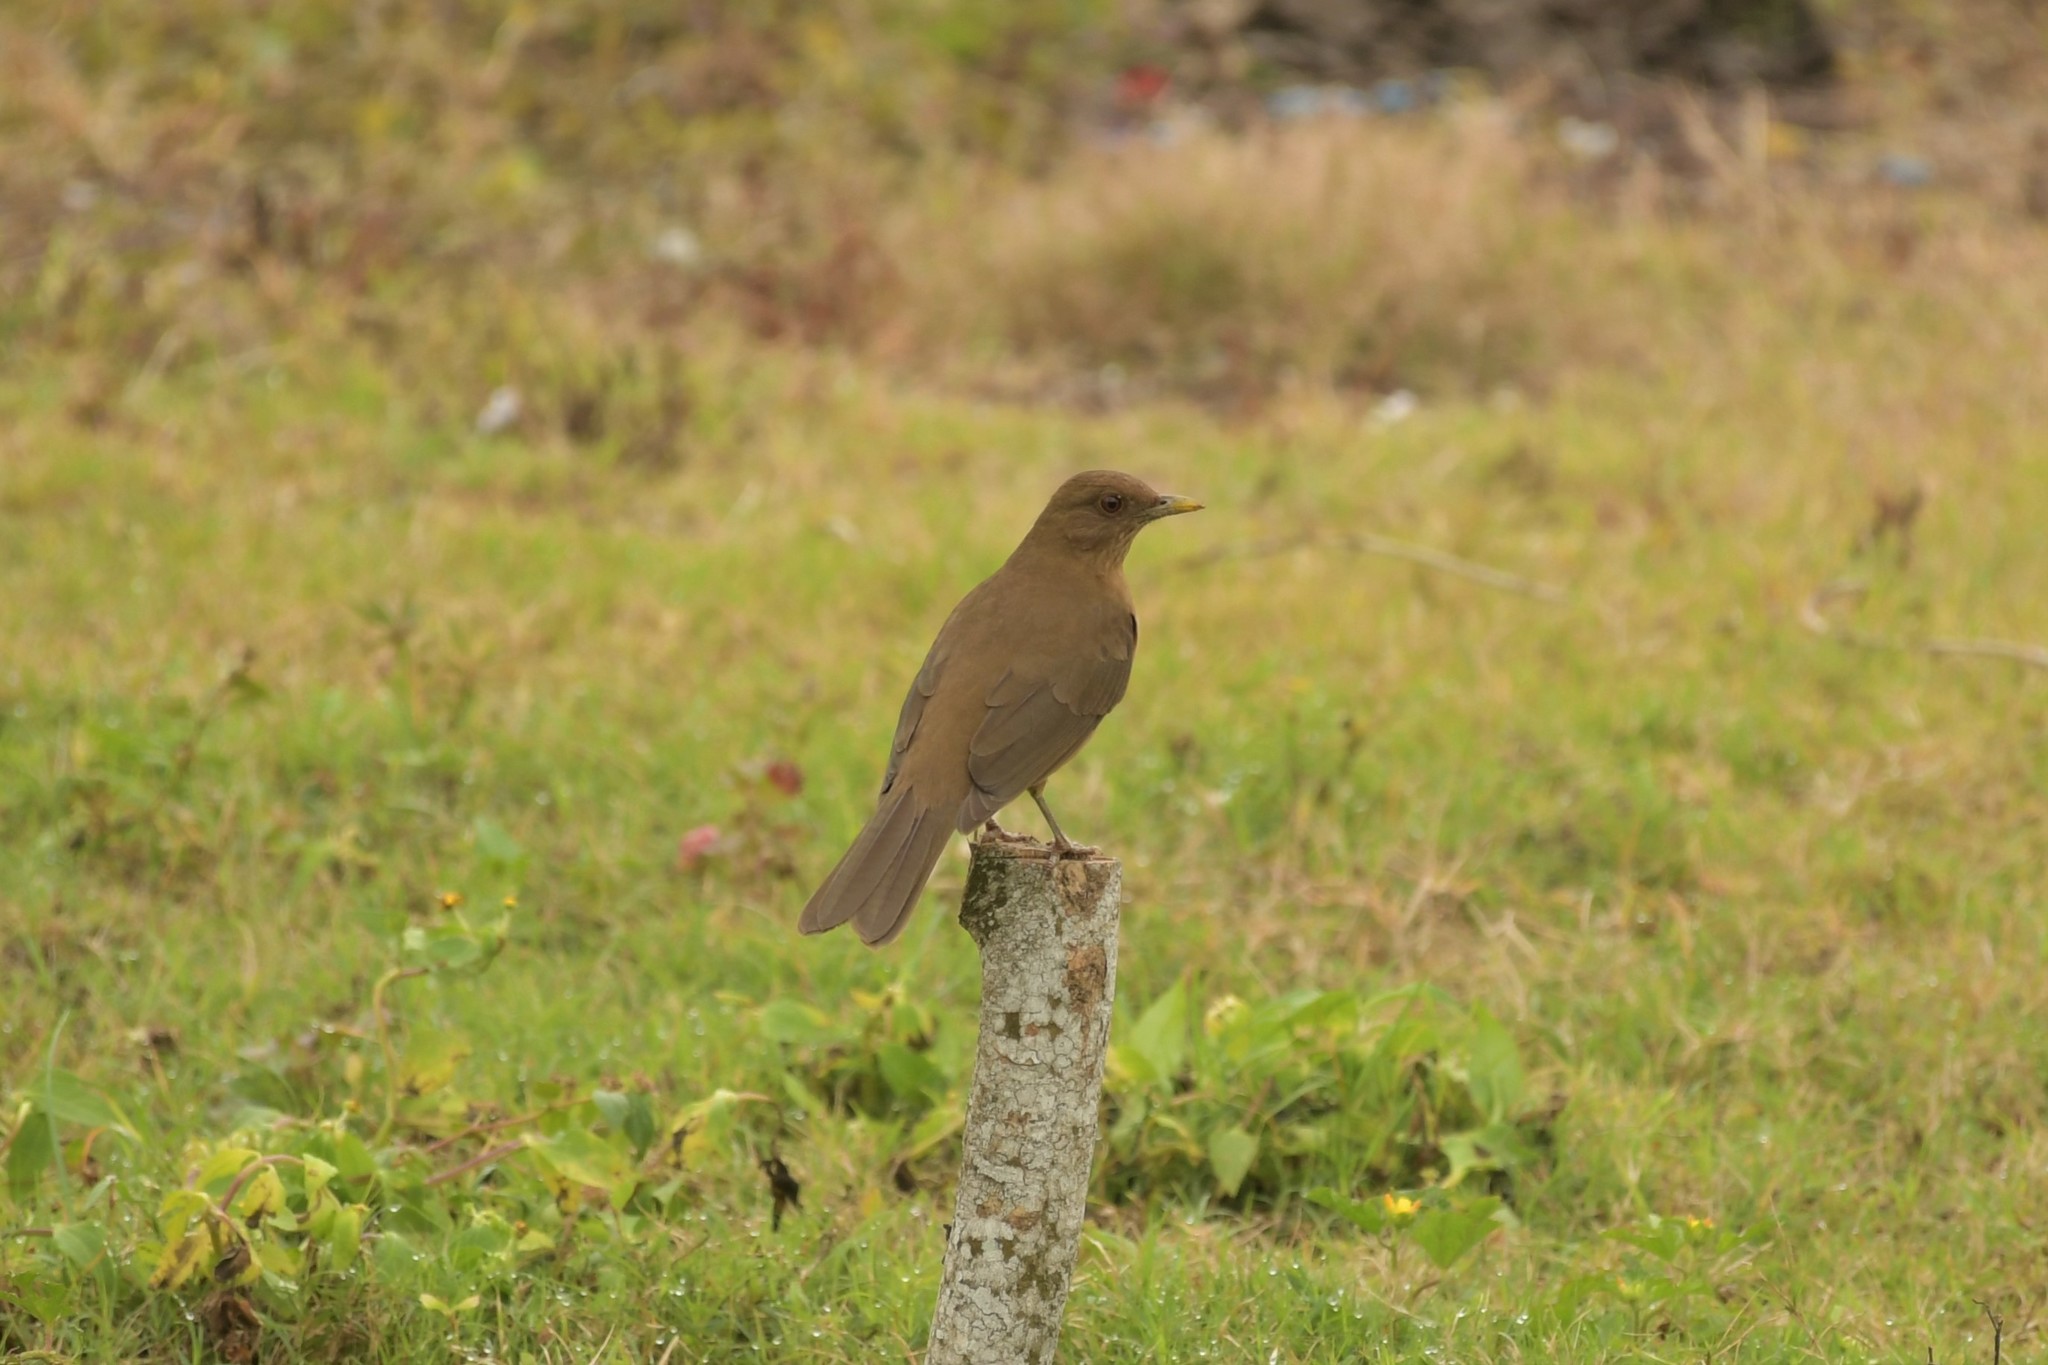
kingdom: Animalia
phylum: Chordata
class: Aves
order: Passeriformes
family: Turdidae
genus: Turdus
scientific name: Turdus grayi
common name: Clay-colored thrush
